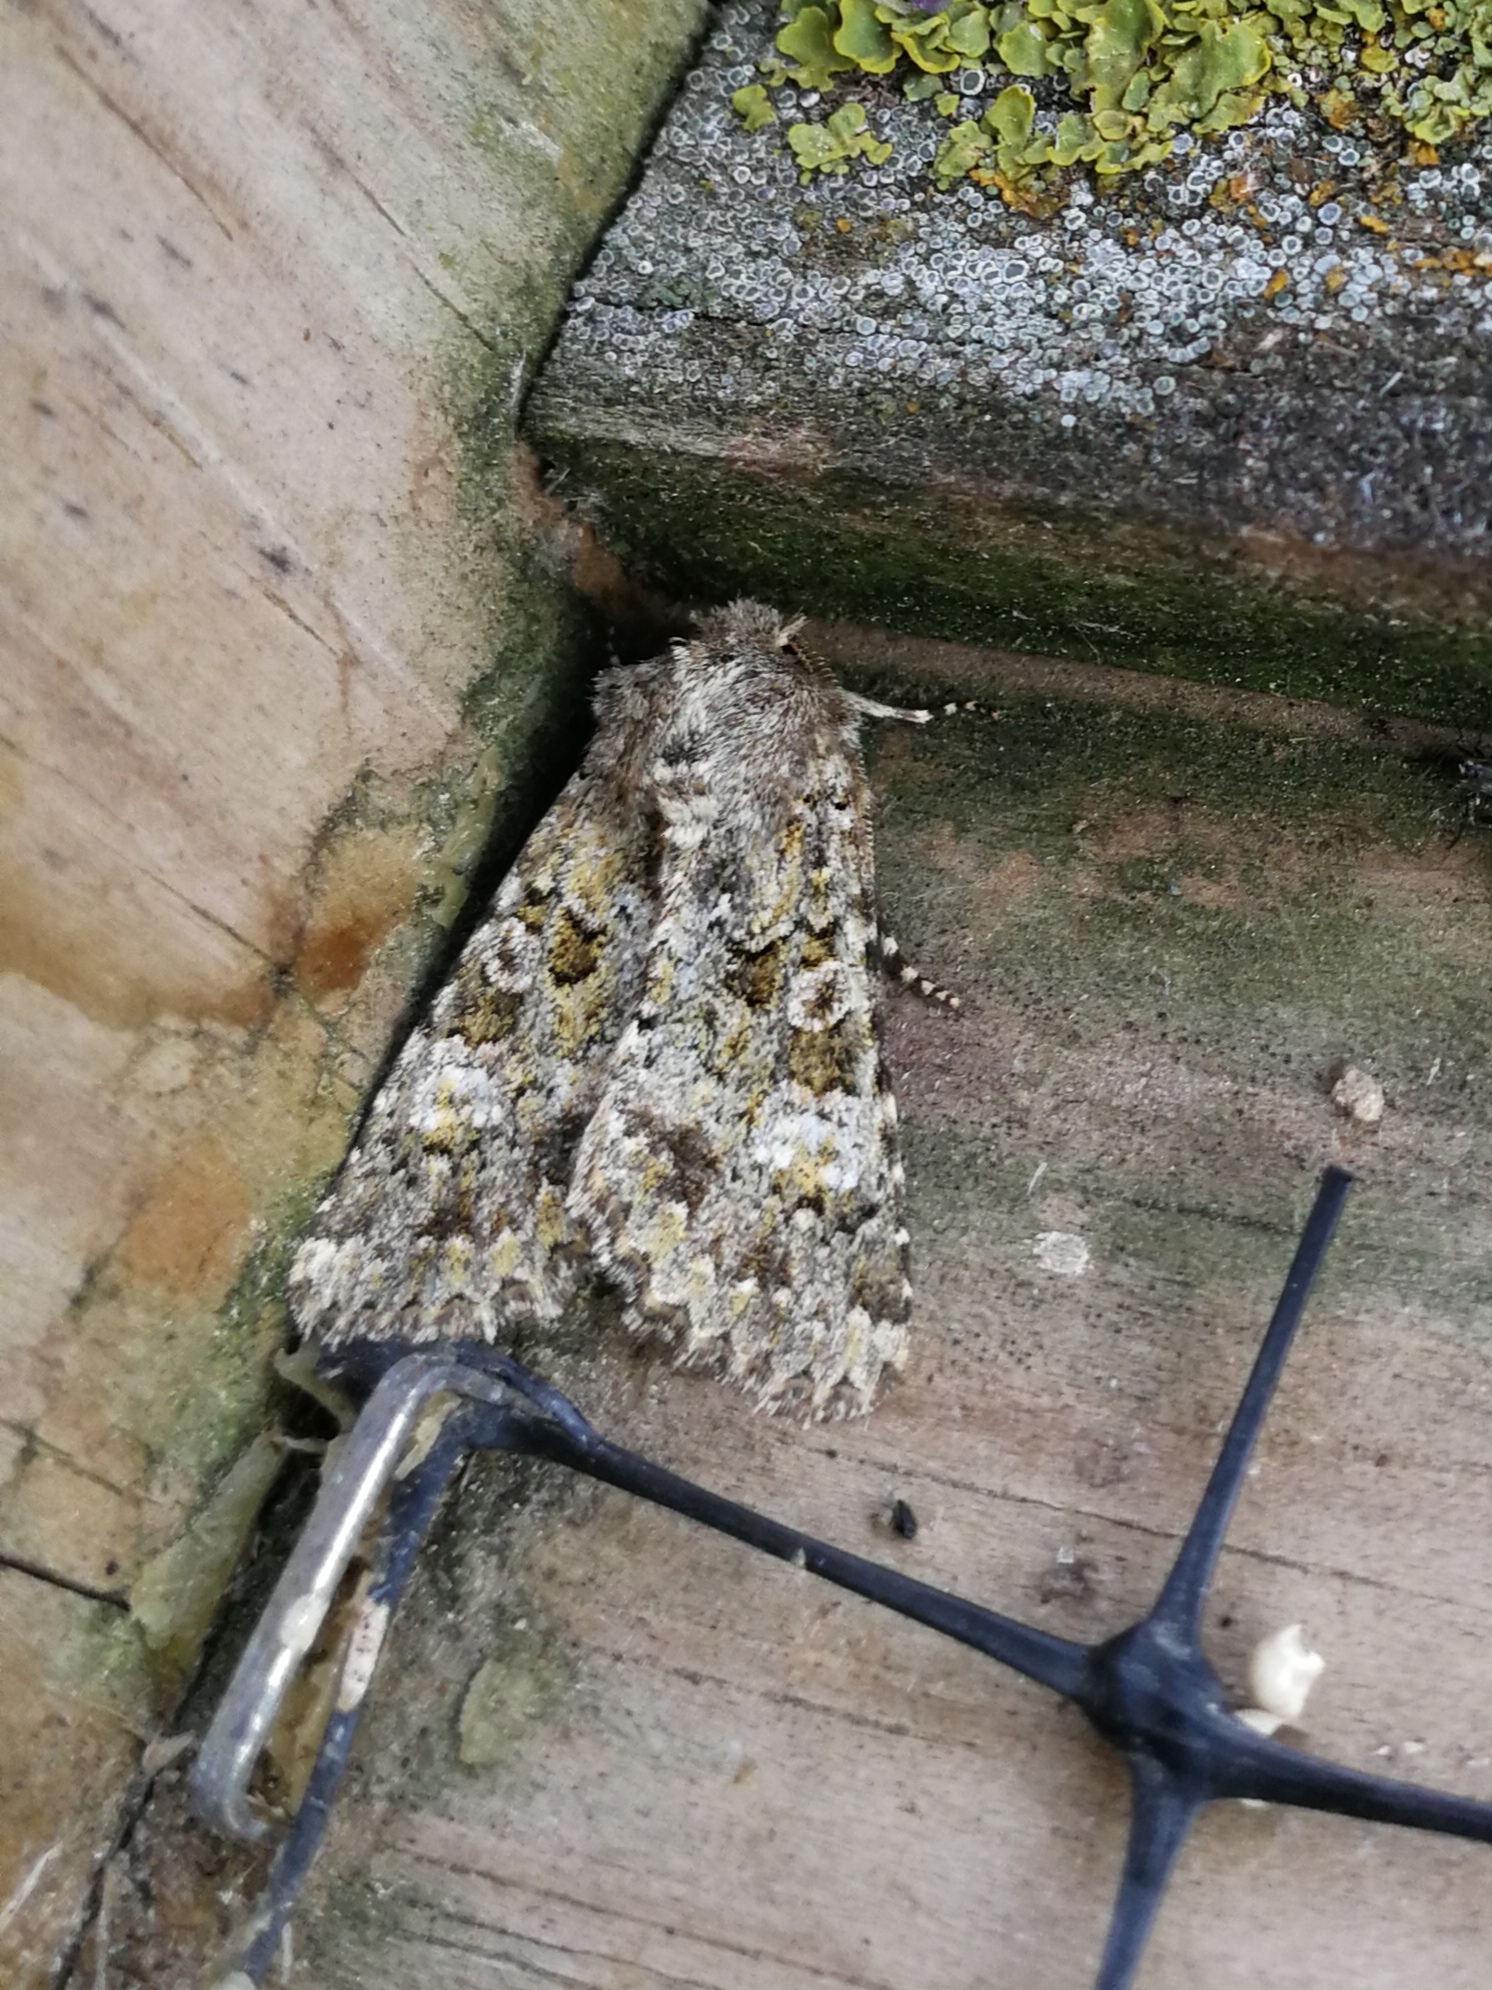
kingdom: Animalia
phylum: Arthropoda
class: Insecta
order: Lepidoptera
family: Noctuidae
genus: Polymixis
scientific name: Polymixis lichenea
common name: Feathered ranunculus
